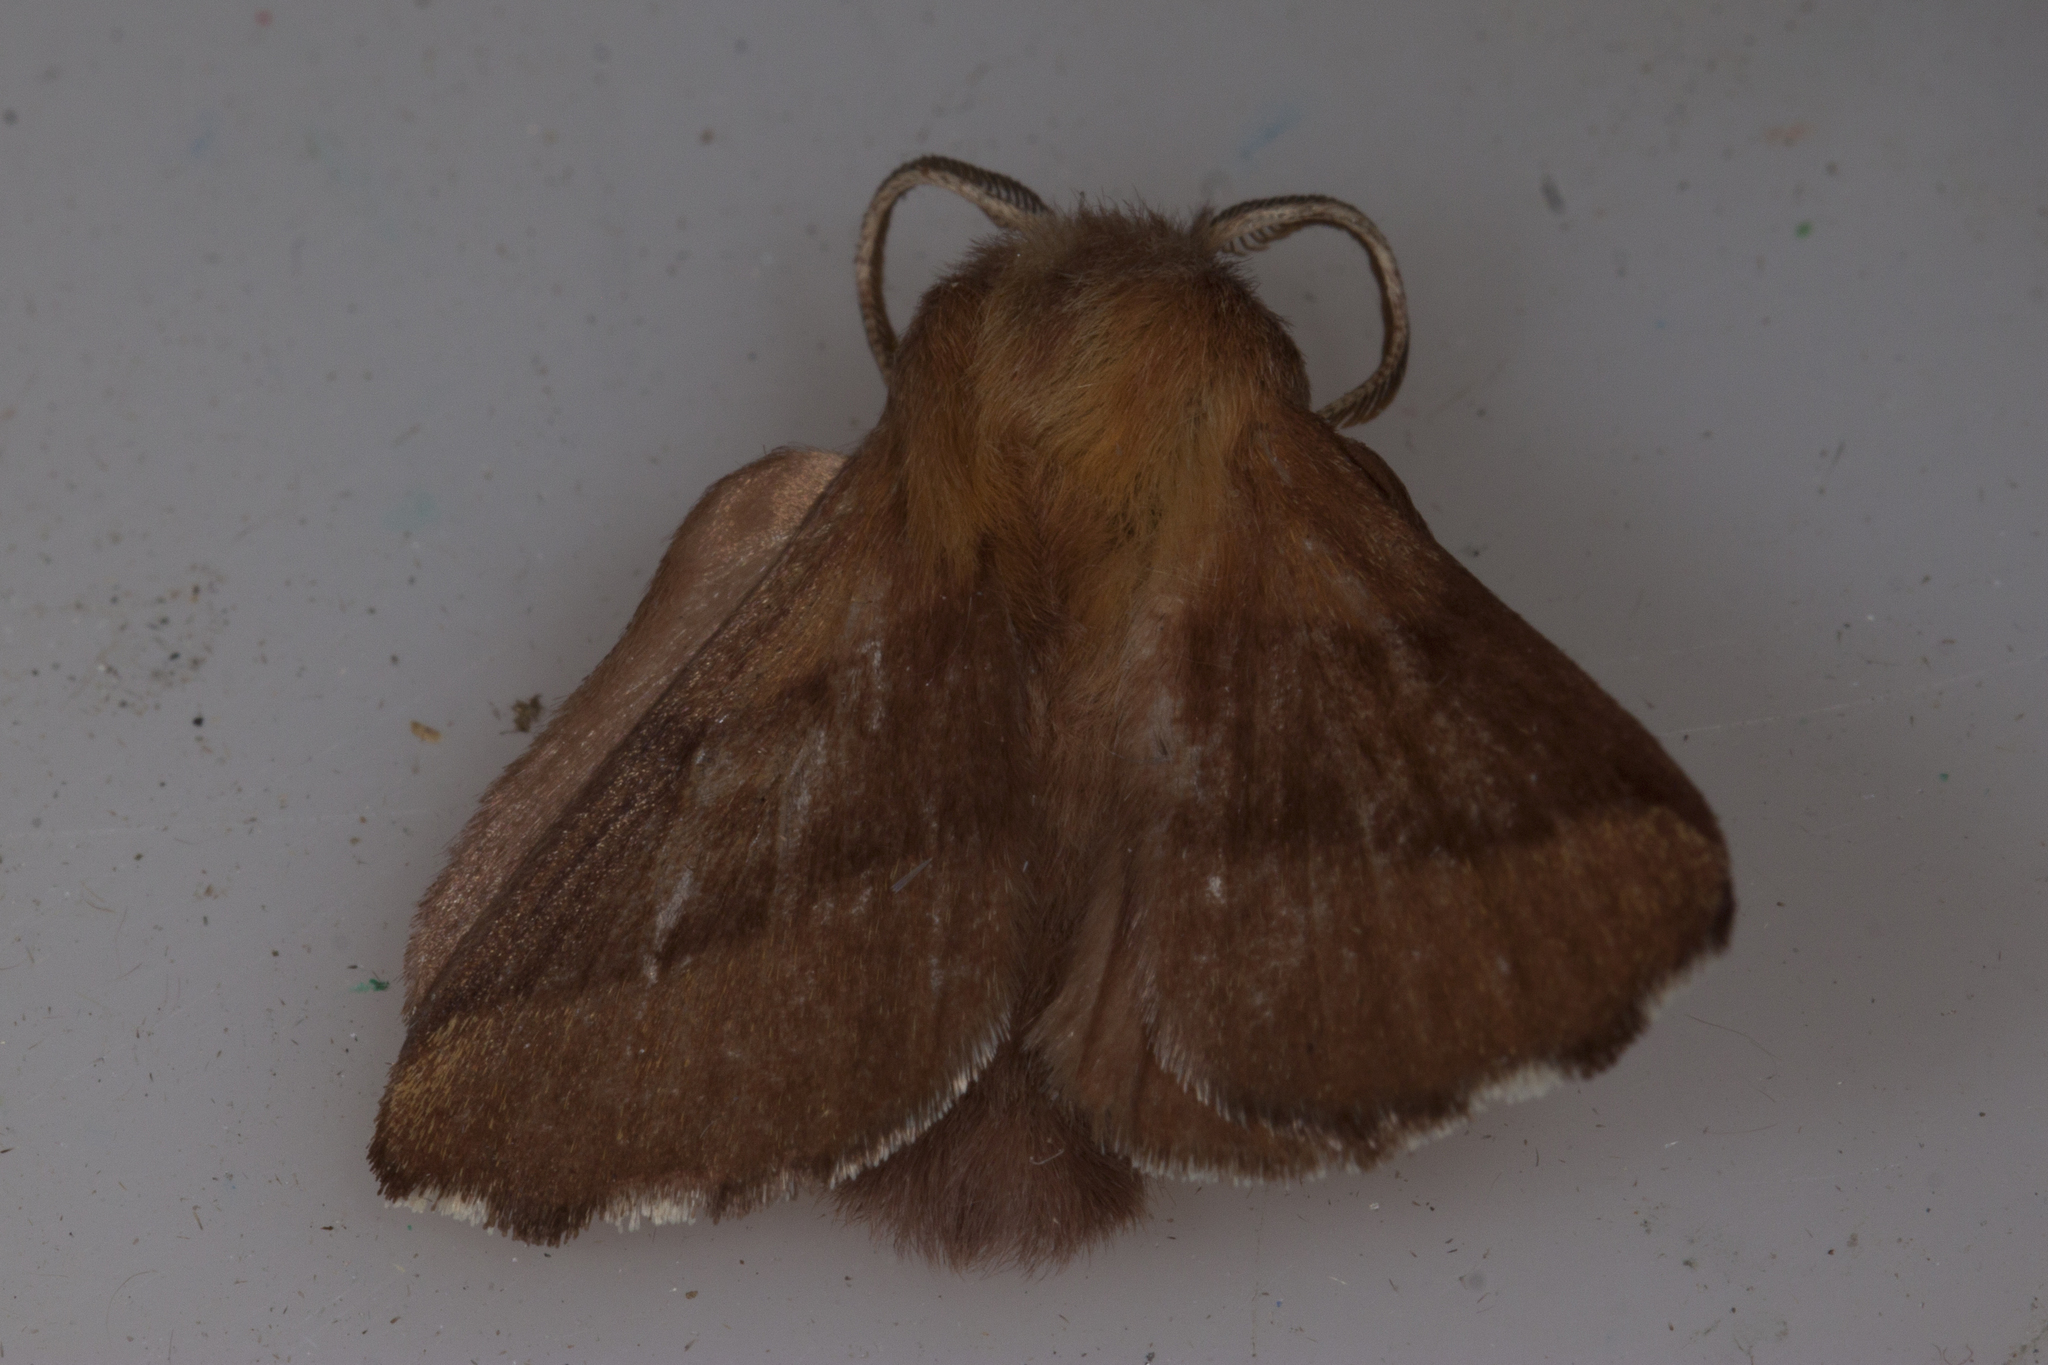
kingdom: Animalia
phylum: Arthropoda
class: Insecta
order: Lepidoptera
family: Lasiocampidae
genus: Malacosoma
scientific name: Malacosoma disstria
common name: Forest tent caterpillar
